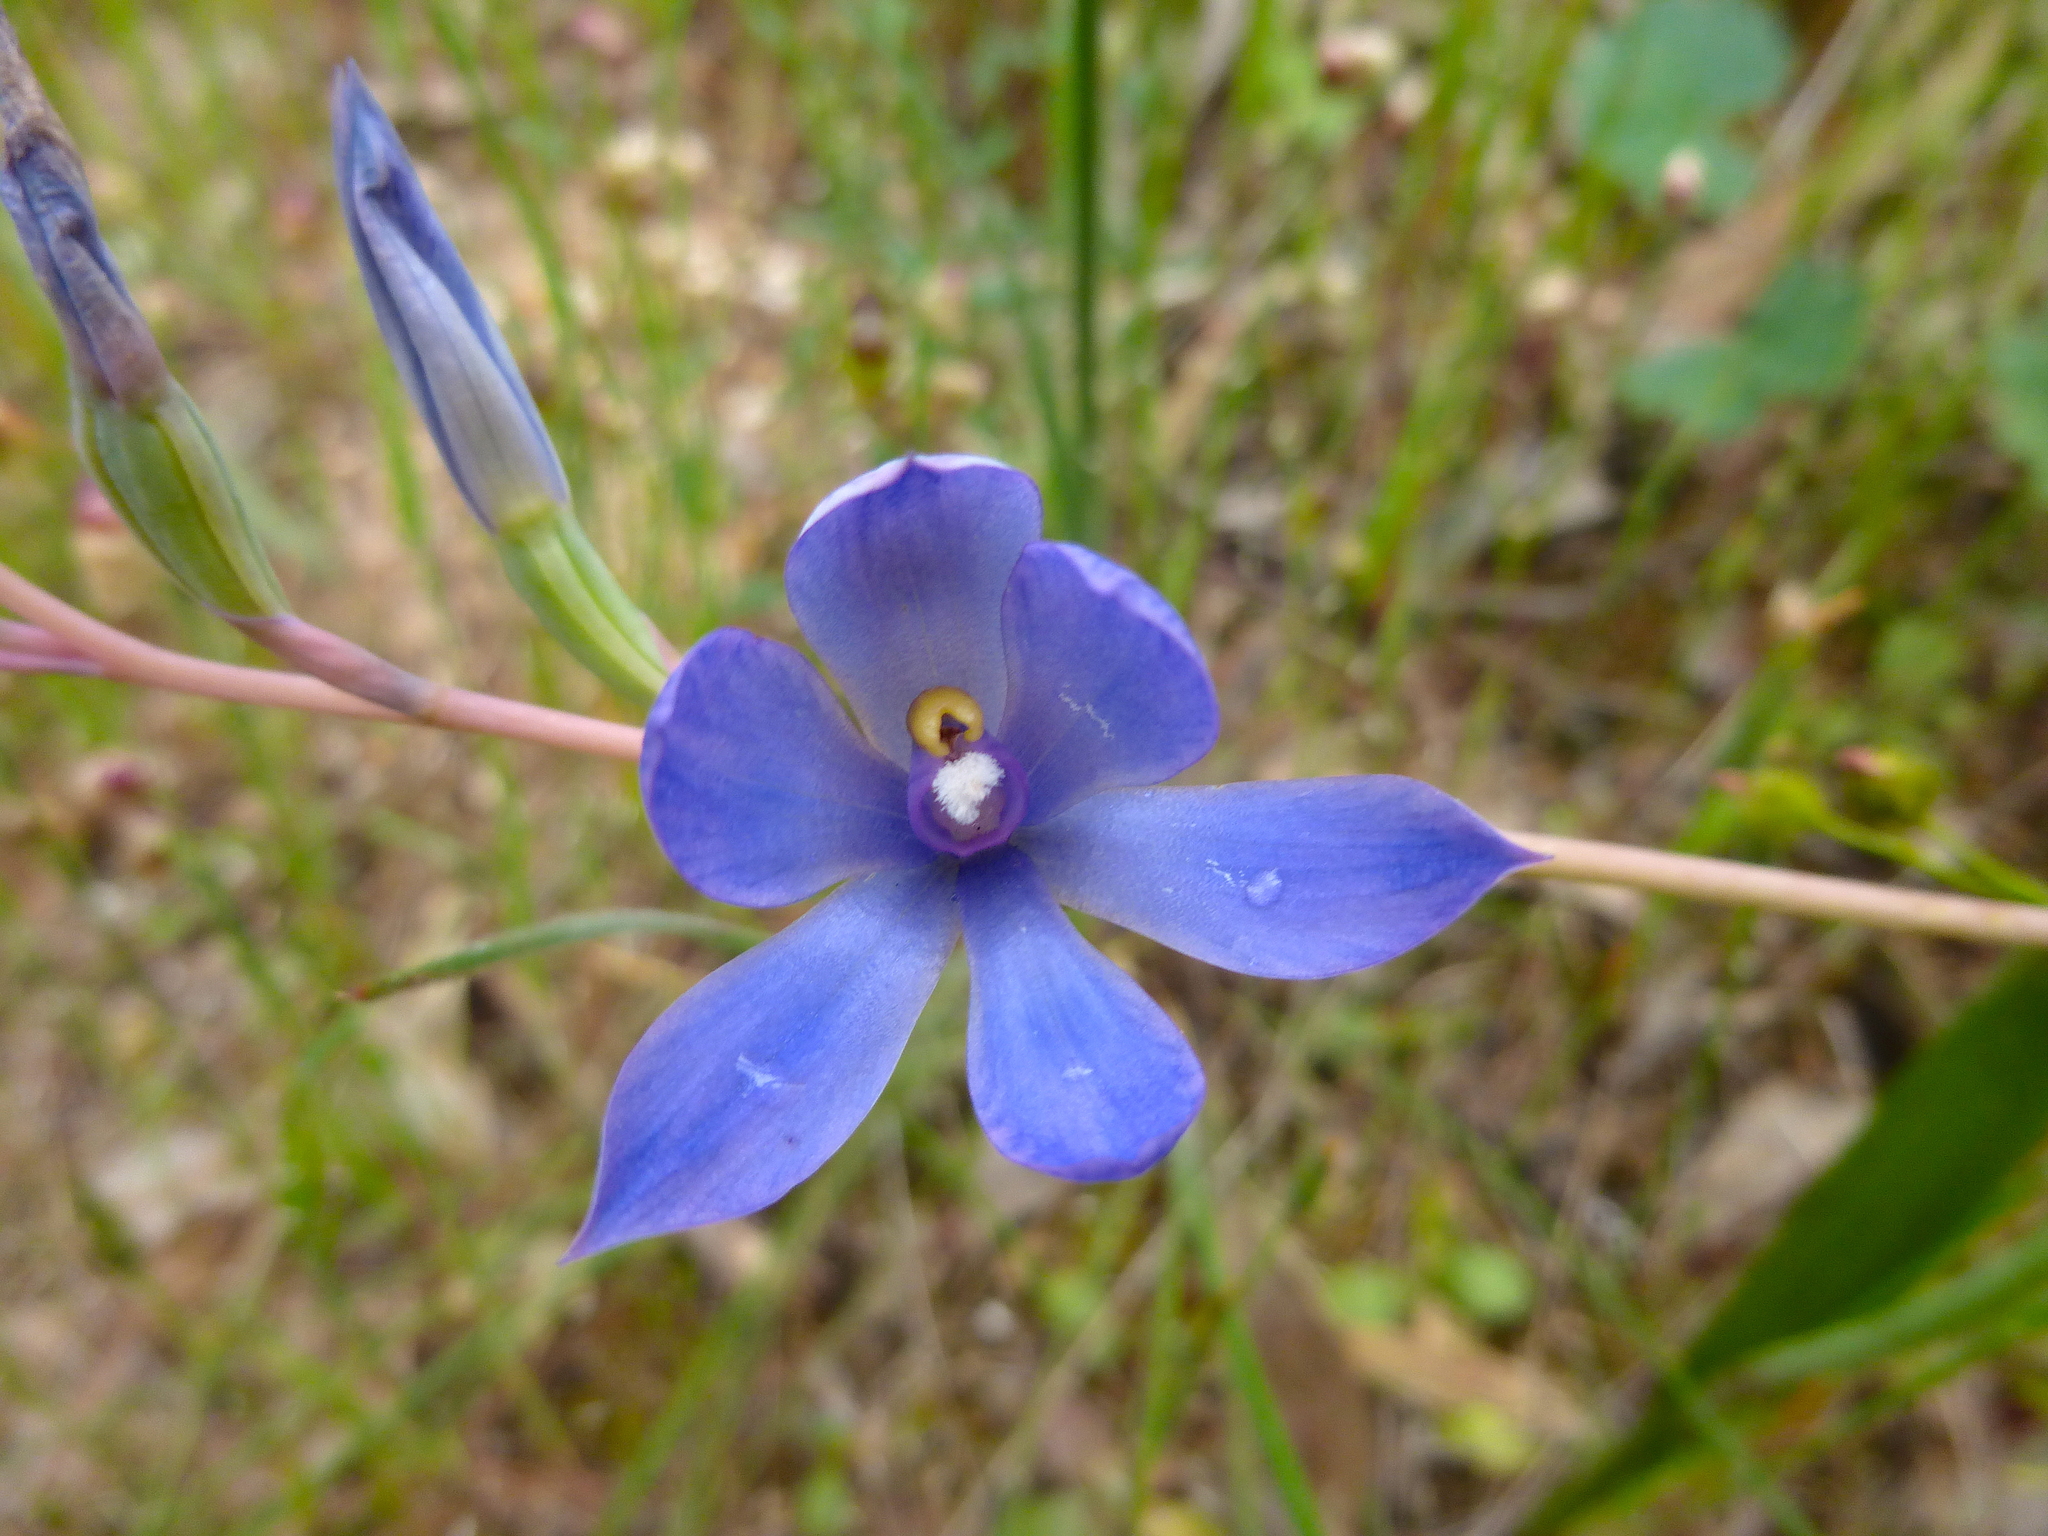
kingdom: Plantae
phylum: Tracheophyta
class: Liliopsida
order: Asparagales
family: Orchidaceae
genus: Thelymitra
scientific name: Thelymitra megcalyptra
